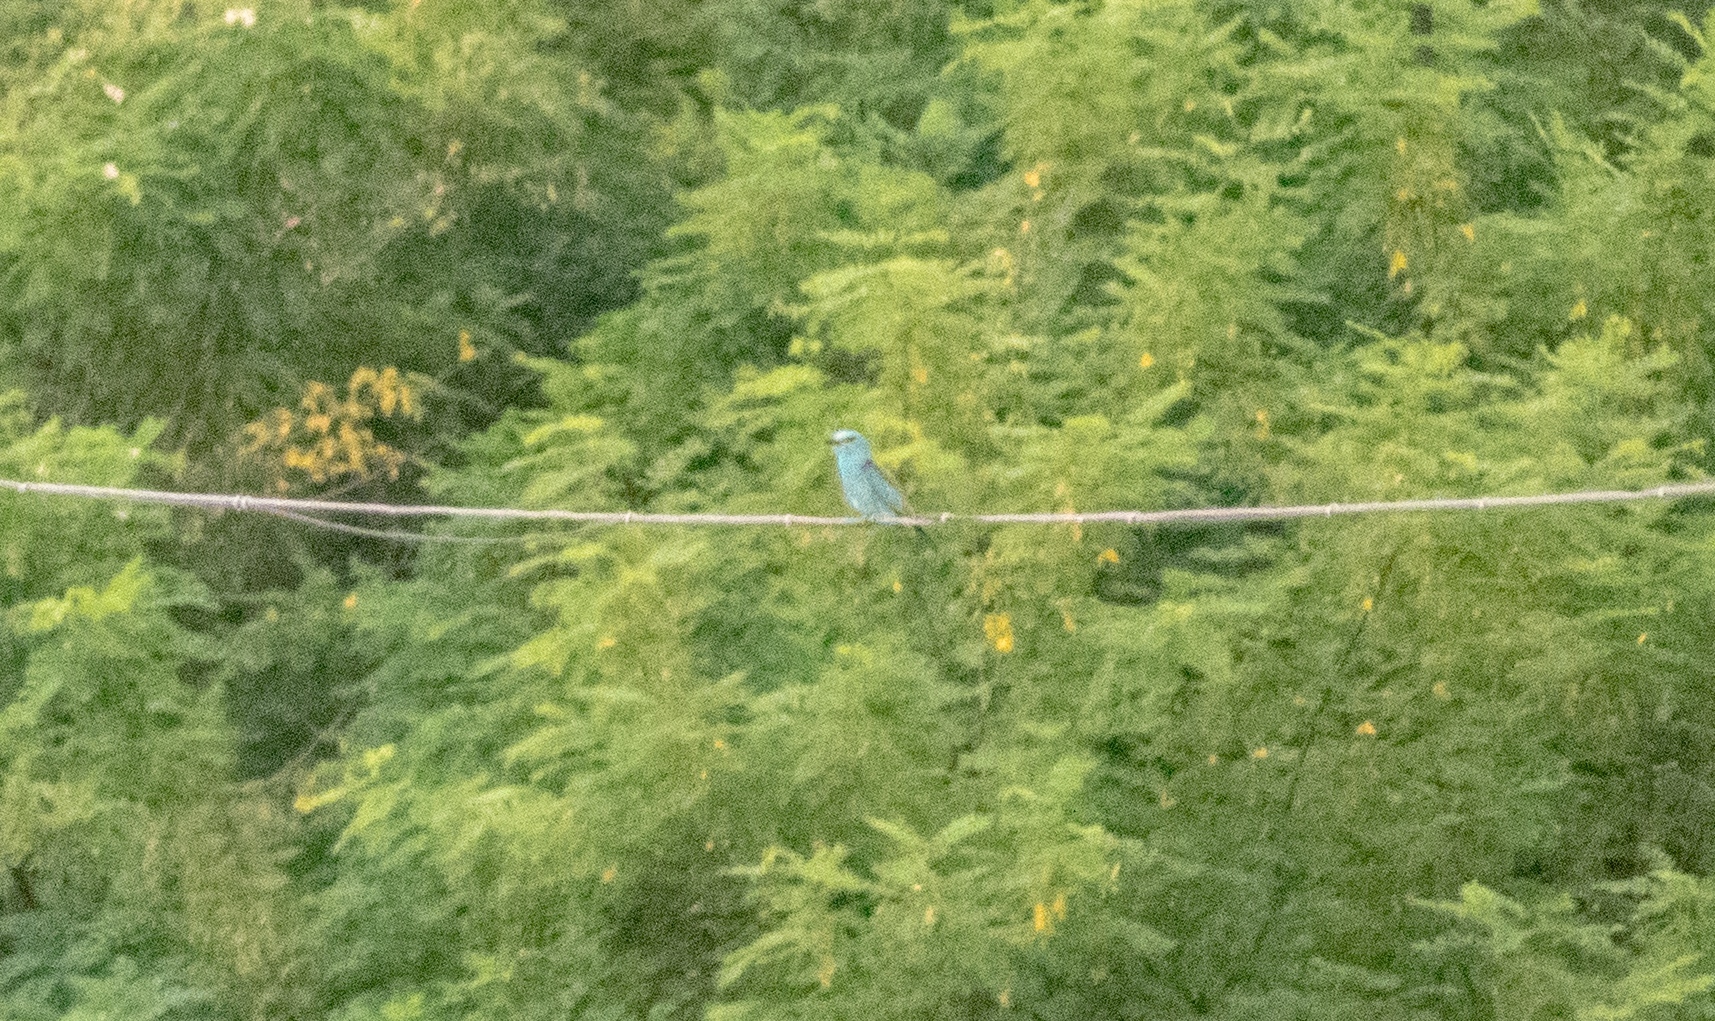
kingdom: Animalia
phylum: Chordata
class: Aves
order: Coraciiformes
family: Coraciidae
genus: Coracias
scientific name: Coracias garrulus
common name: European roller
